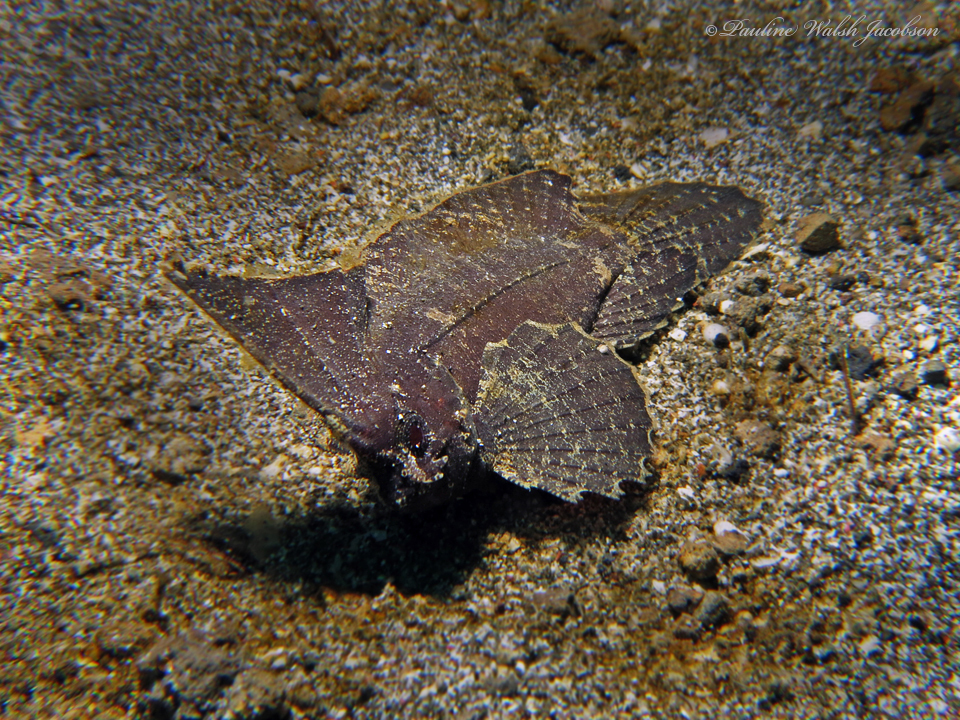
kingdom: Animalia
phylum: Chordata
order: Scorpaeniformes
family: Tetrarogidae
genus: Ablabys
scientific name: Ablabys macracanthus
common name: Spiny leaf-fish
